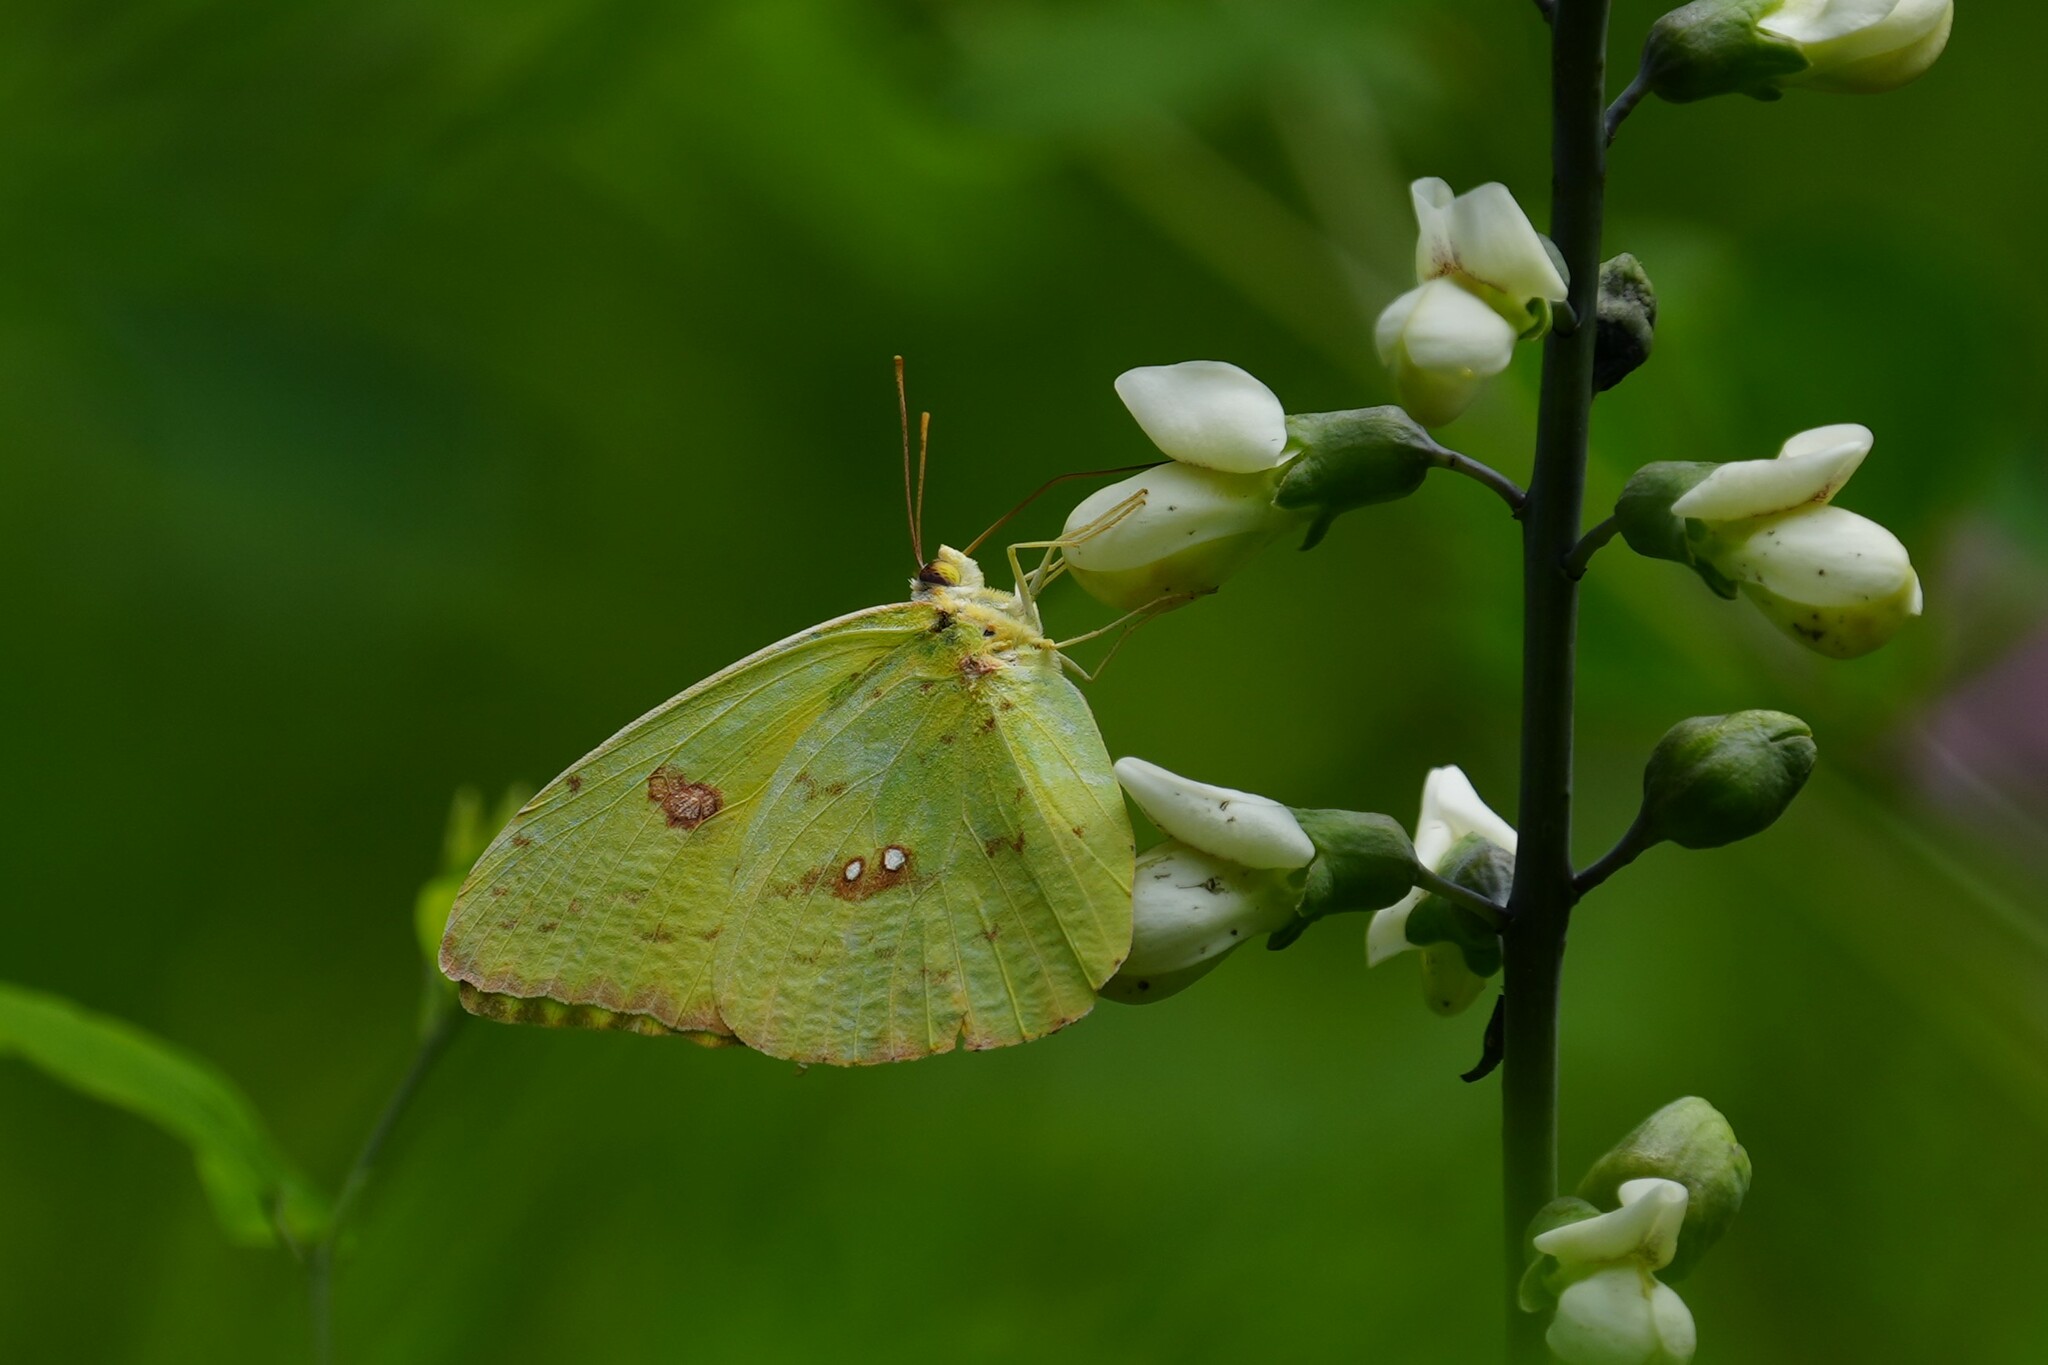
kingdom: Animalia
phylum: Arthropoda
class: Insecta
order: Lepidoptera
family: Pieridae
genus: Phoebis
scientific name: Phoebis sennae
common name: Cloudless sulphur
